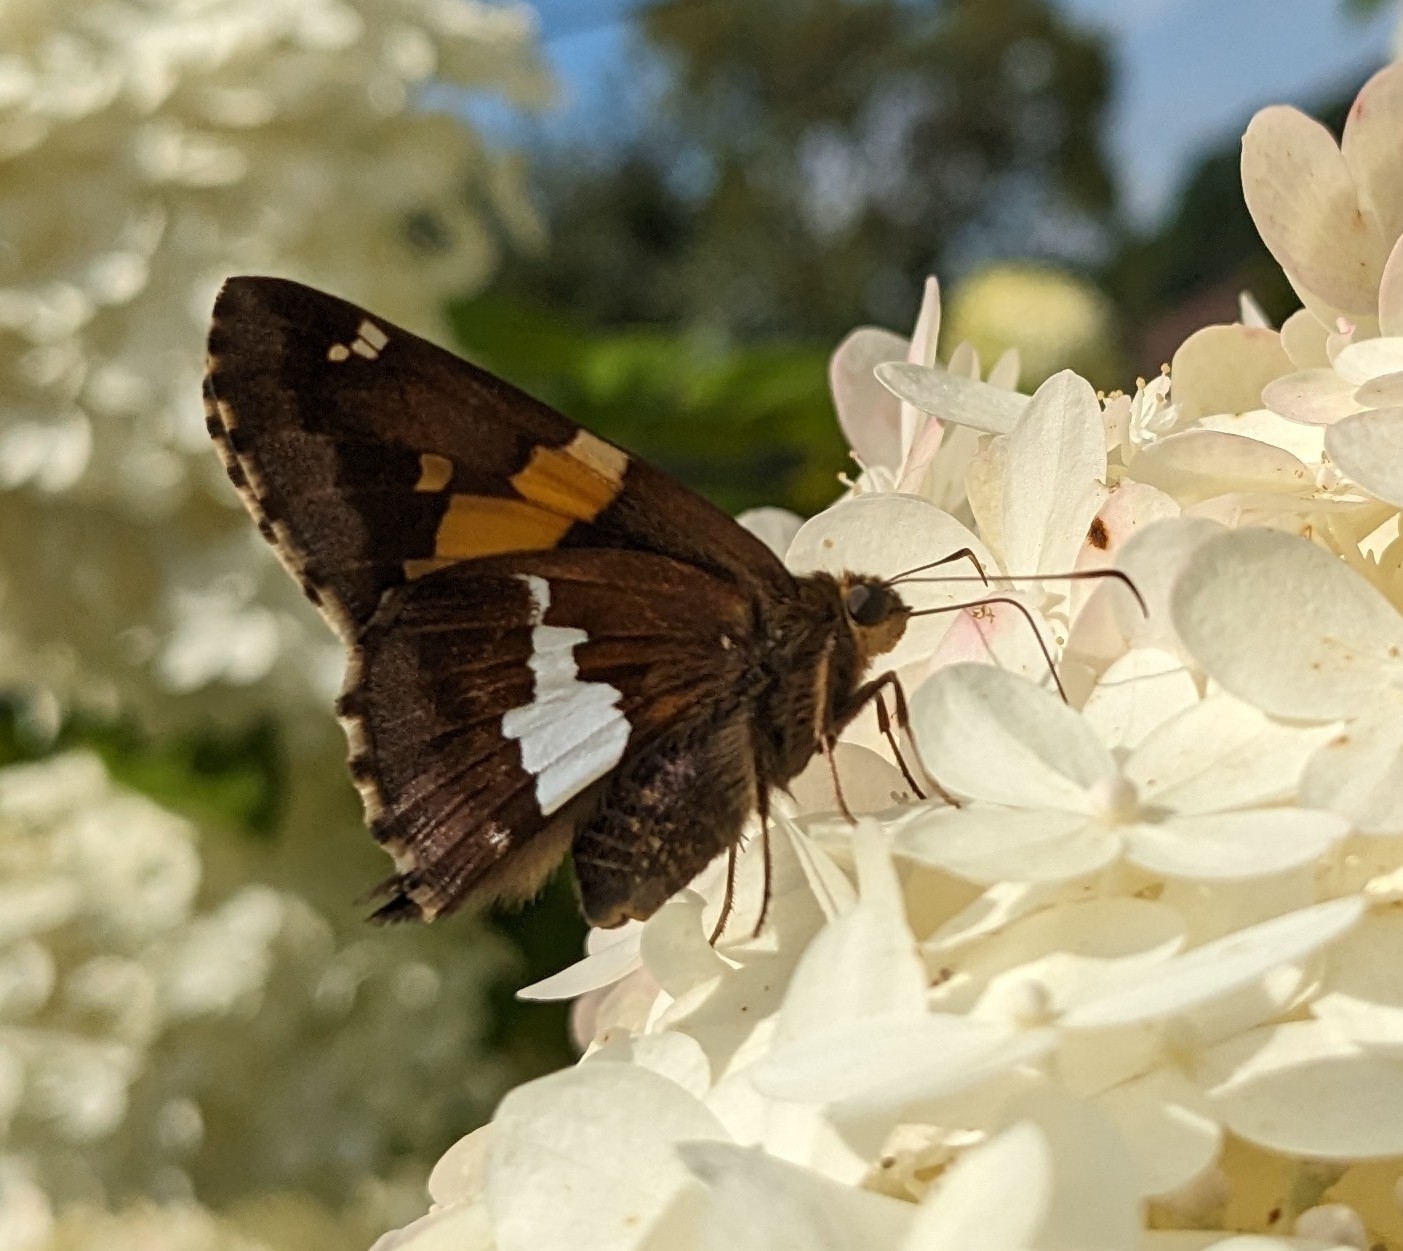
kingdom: Animalia
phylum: Arthropoda
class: Insecta
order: Lepidoptera
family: Hesperiidae
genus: Epargyreus
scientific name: Epargyreus clarus
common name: Silver-spotted skipper
